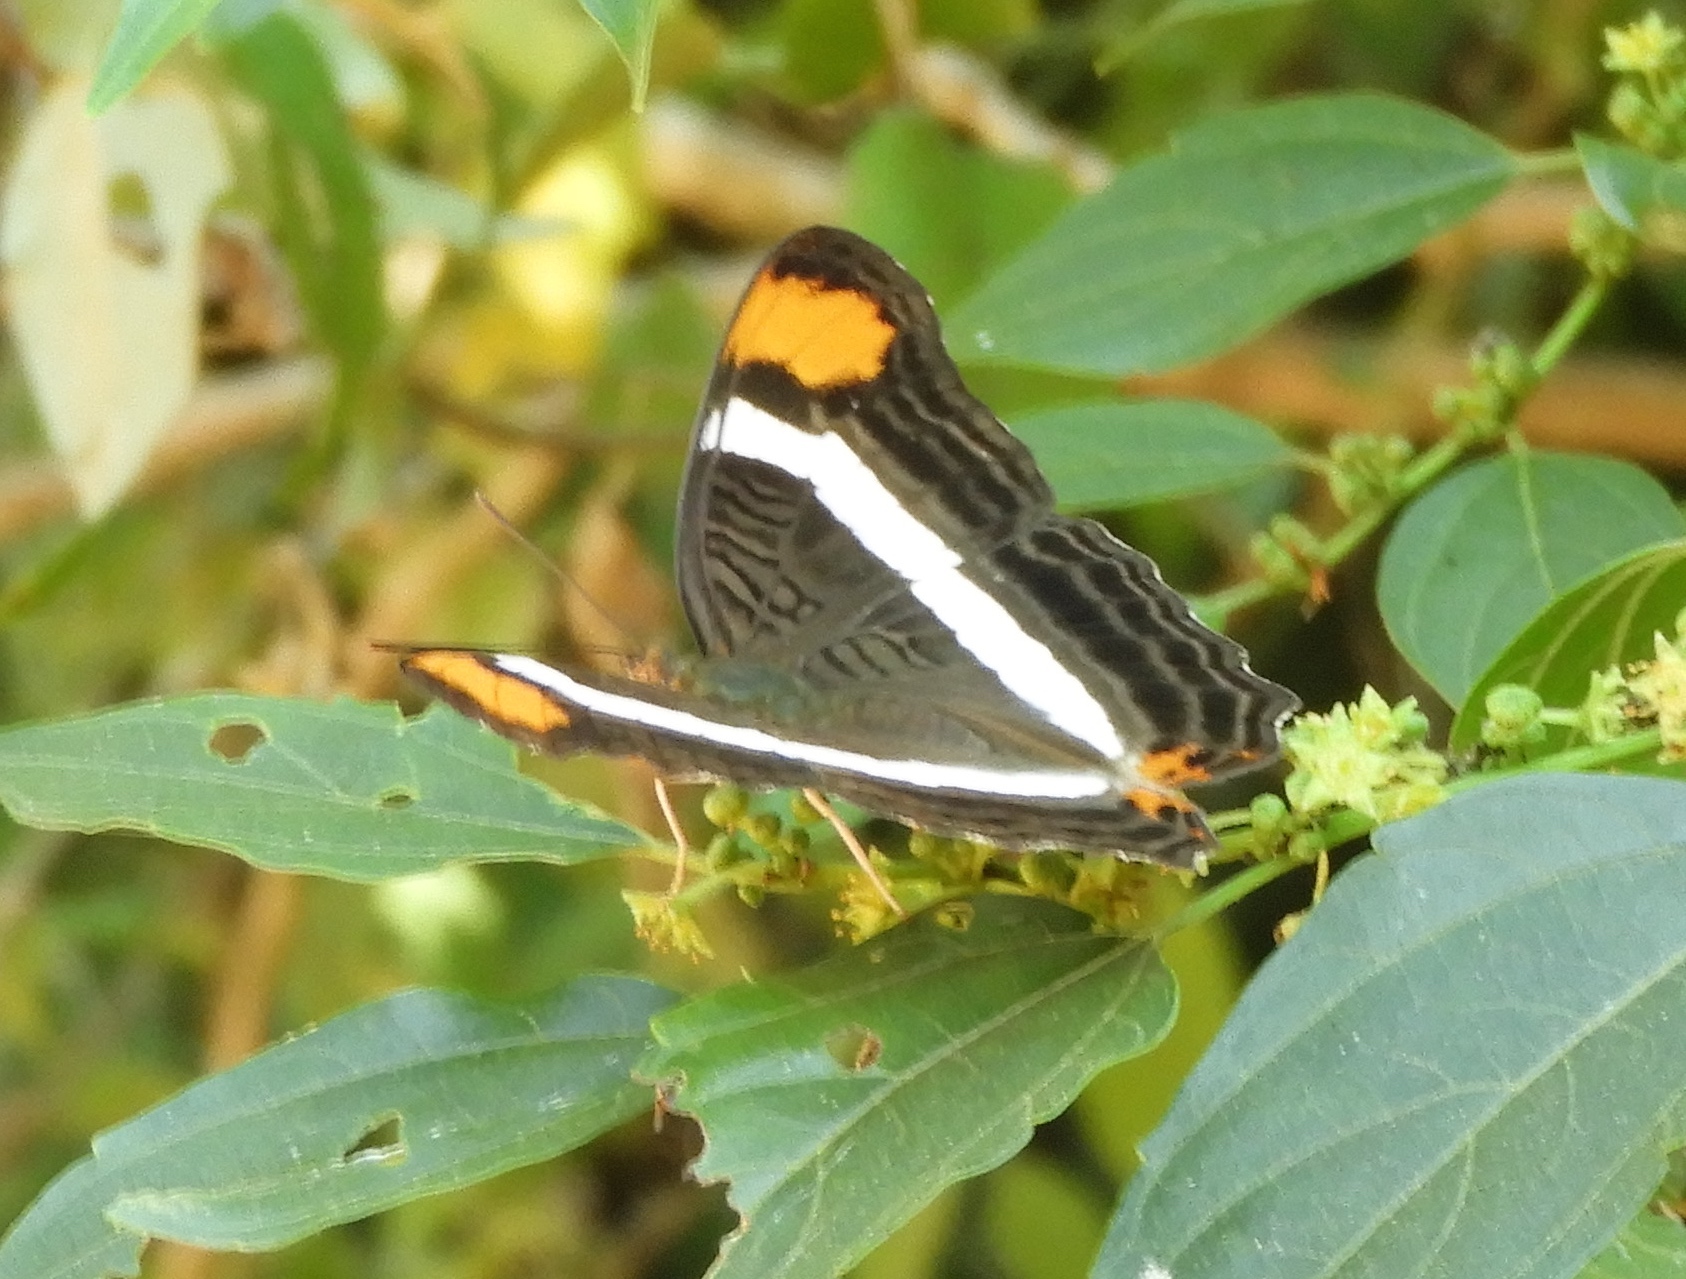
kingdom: Animalia
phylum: Arthropoda
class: Insecta
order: Lepidoptera
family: Nymphalidae
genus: Limenitis
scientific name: Limenitis fessonia
